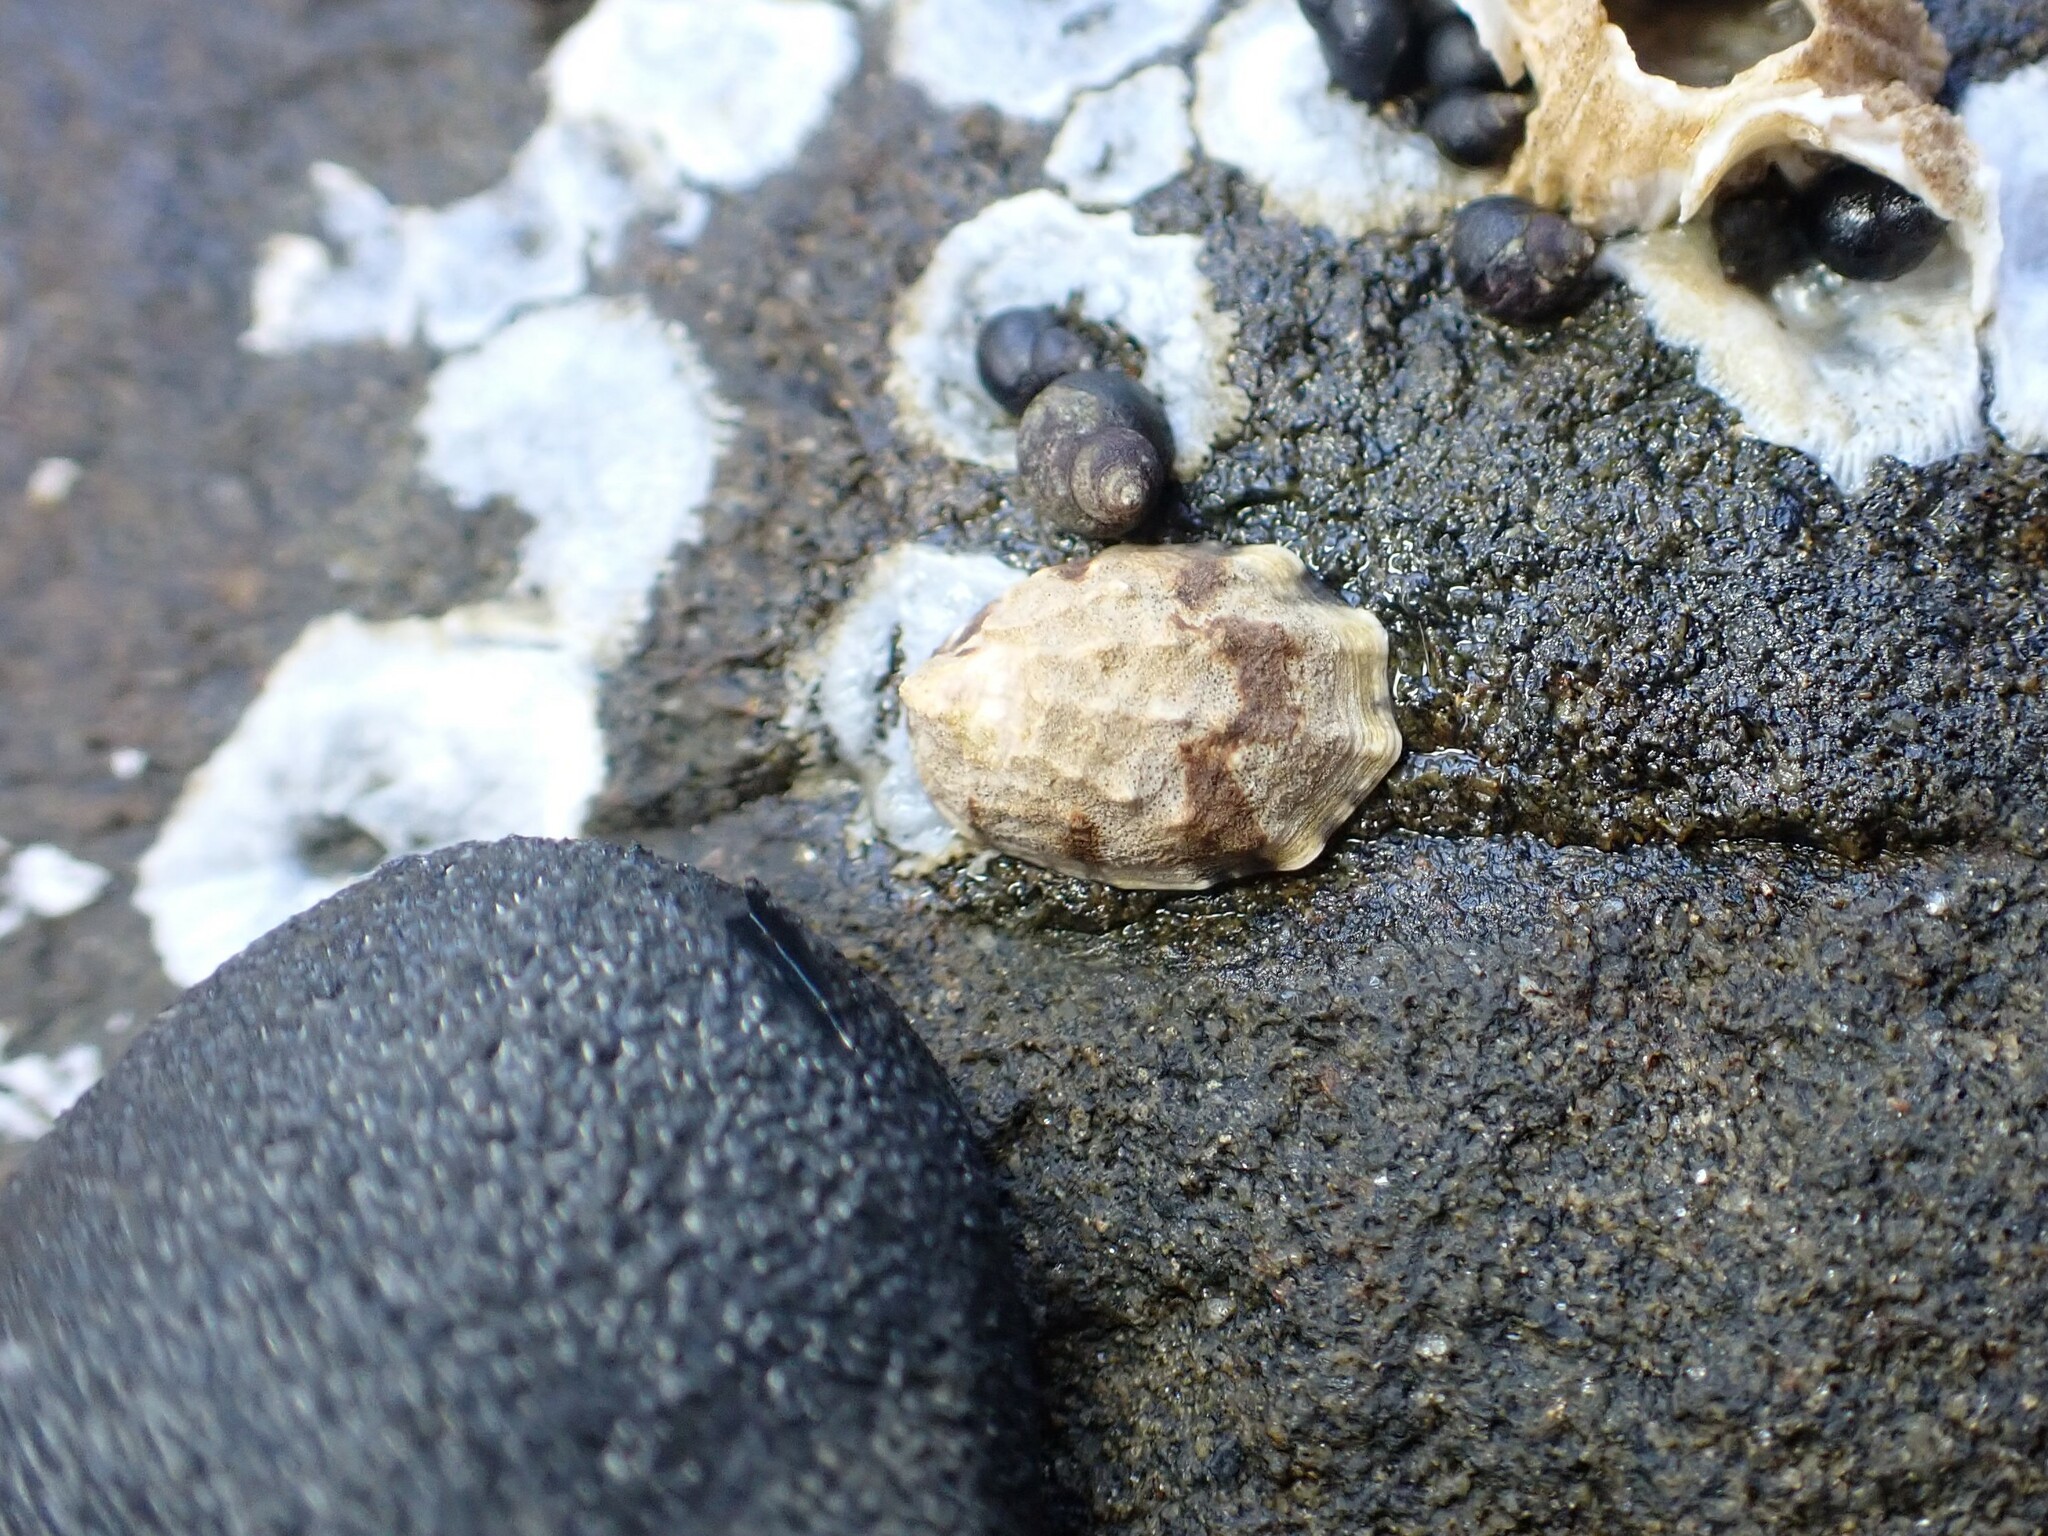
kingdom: Animalia
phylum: Mollusca
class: Gastropoda
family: Lottiidae
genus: Lottia
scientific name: Lottia digitalis
